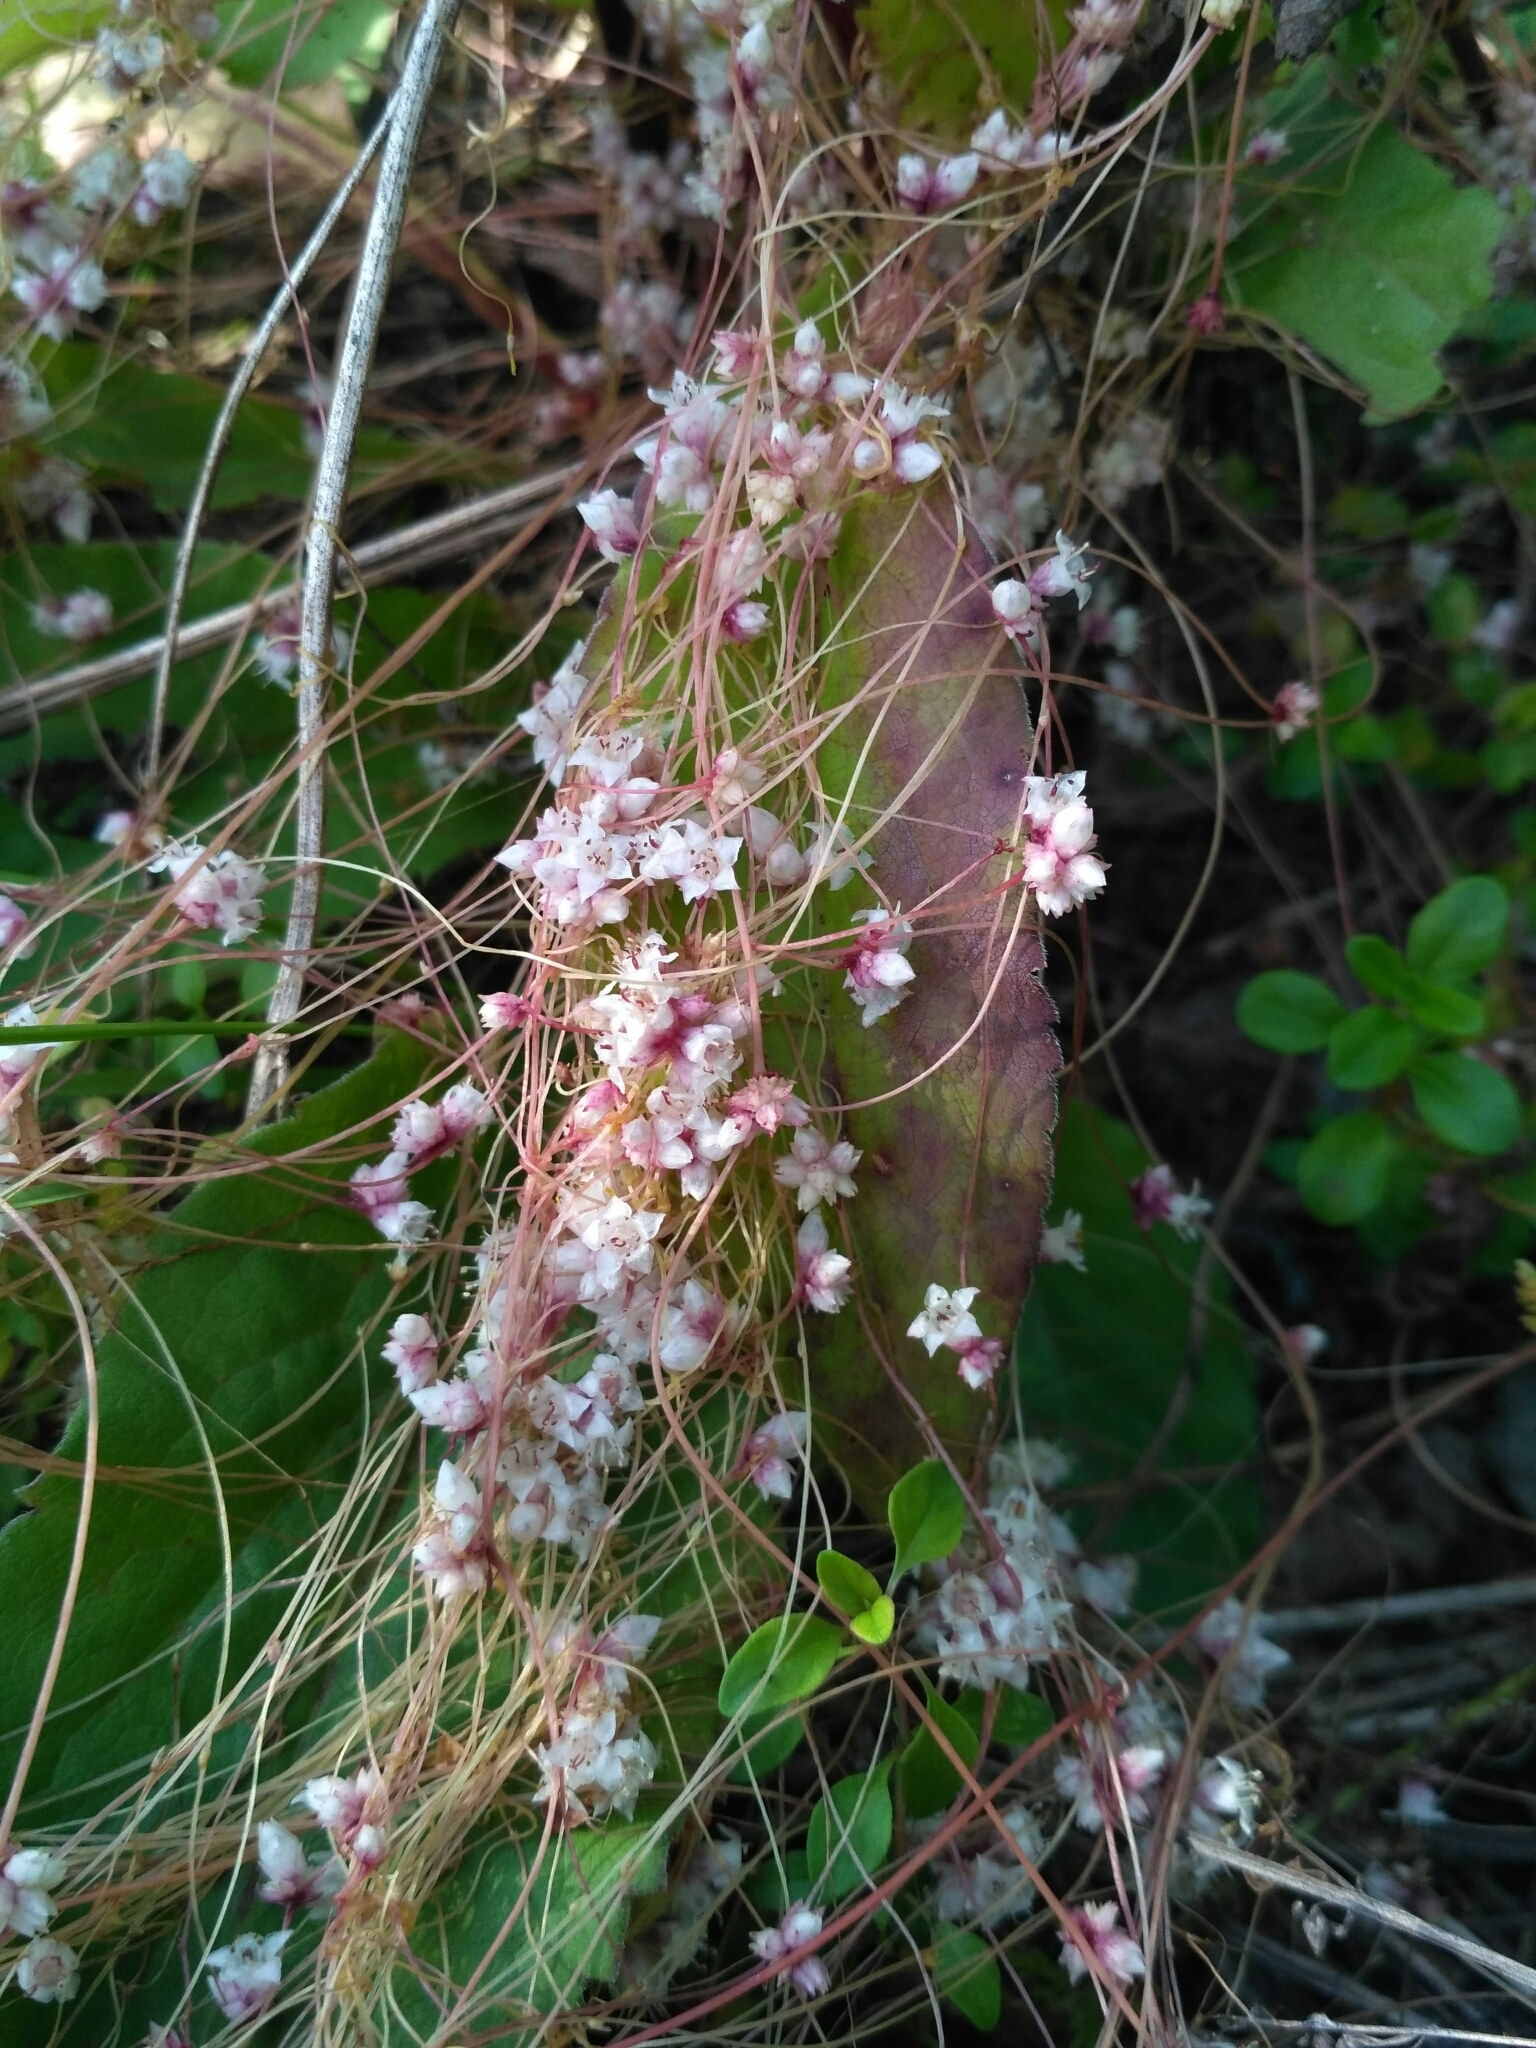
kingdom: Plantae
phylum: Tracheophyta
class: Magnoliopsida
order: Solanales
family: Convolvulaceae
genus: Cuscuta
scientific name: Cuscuta epithymum
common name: Clover dodder
